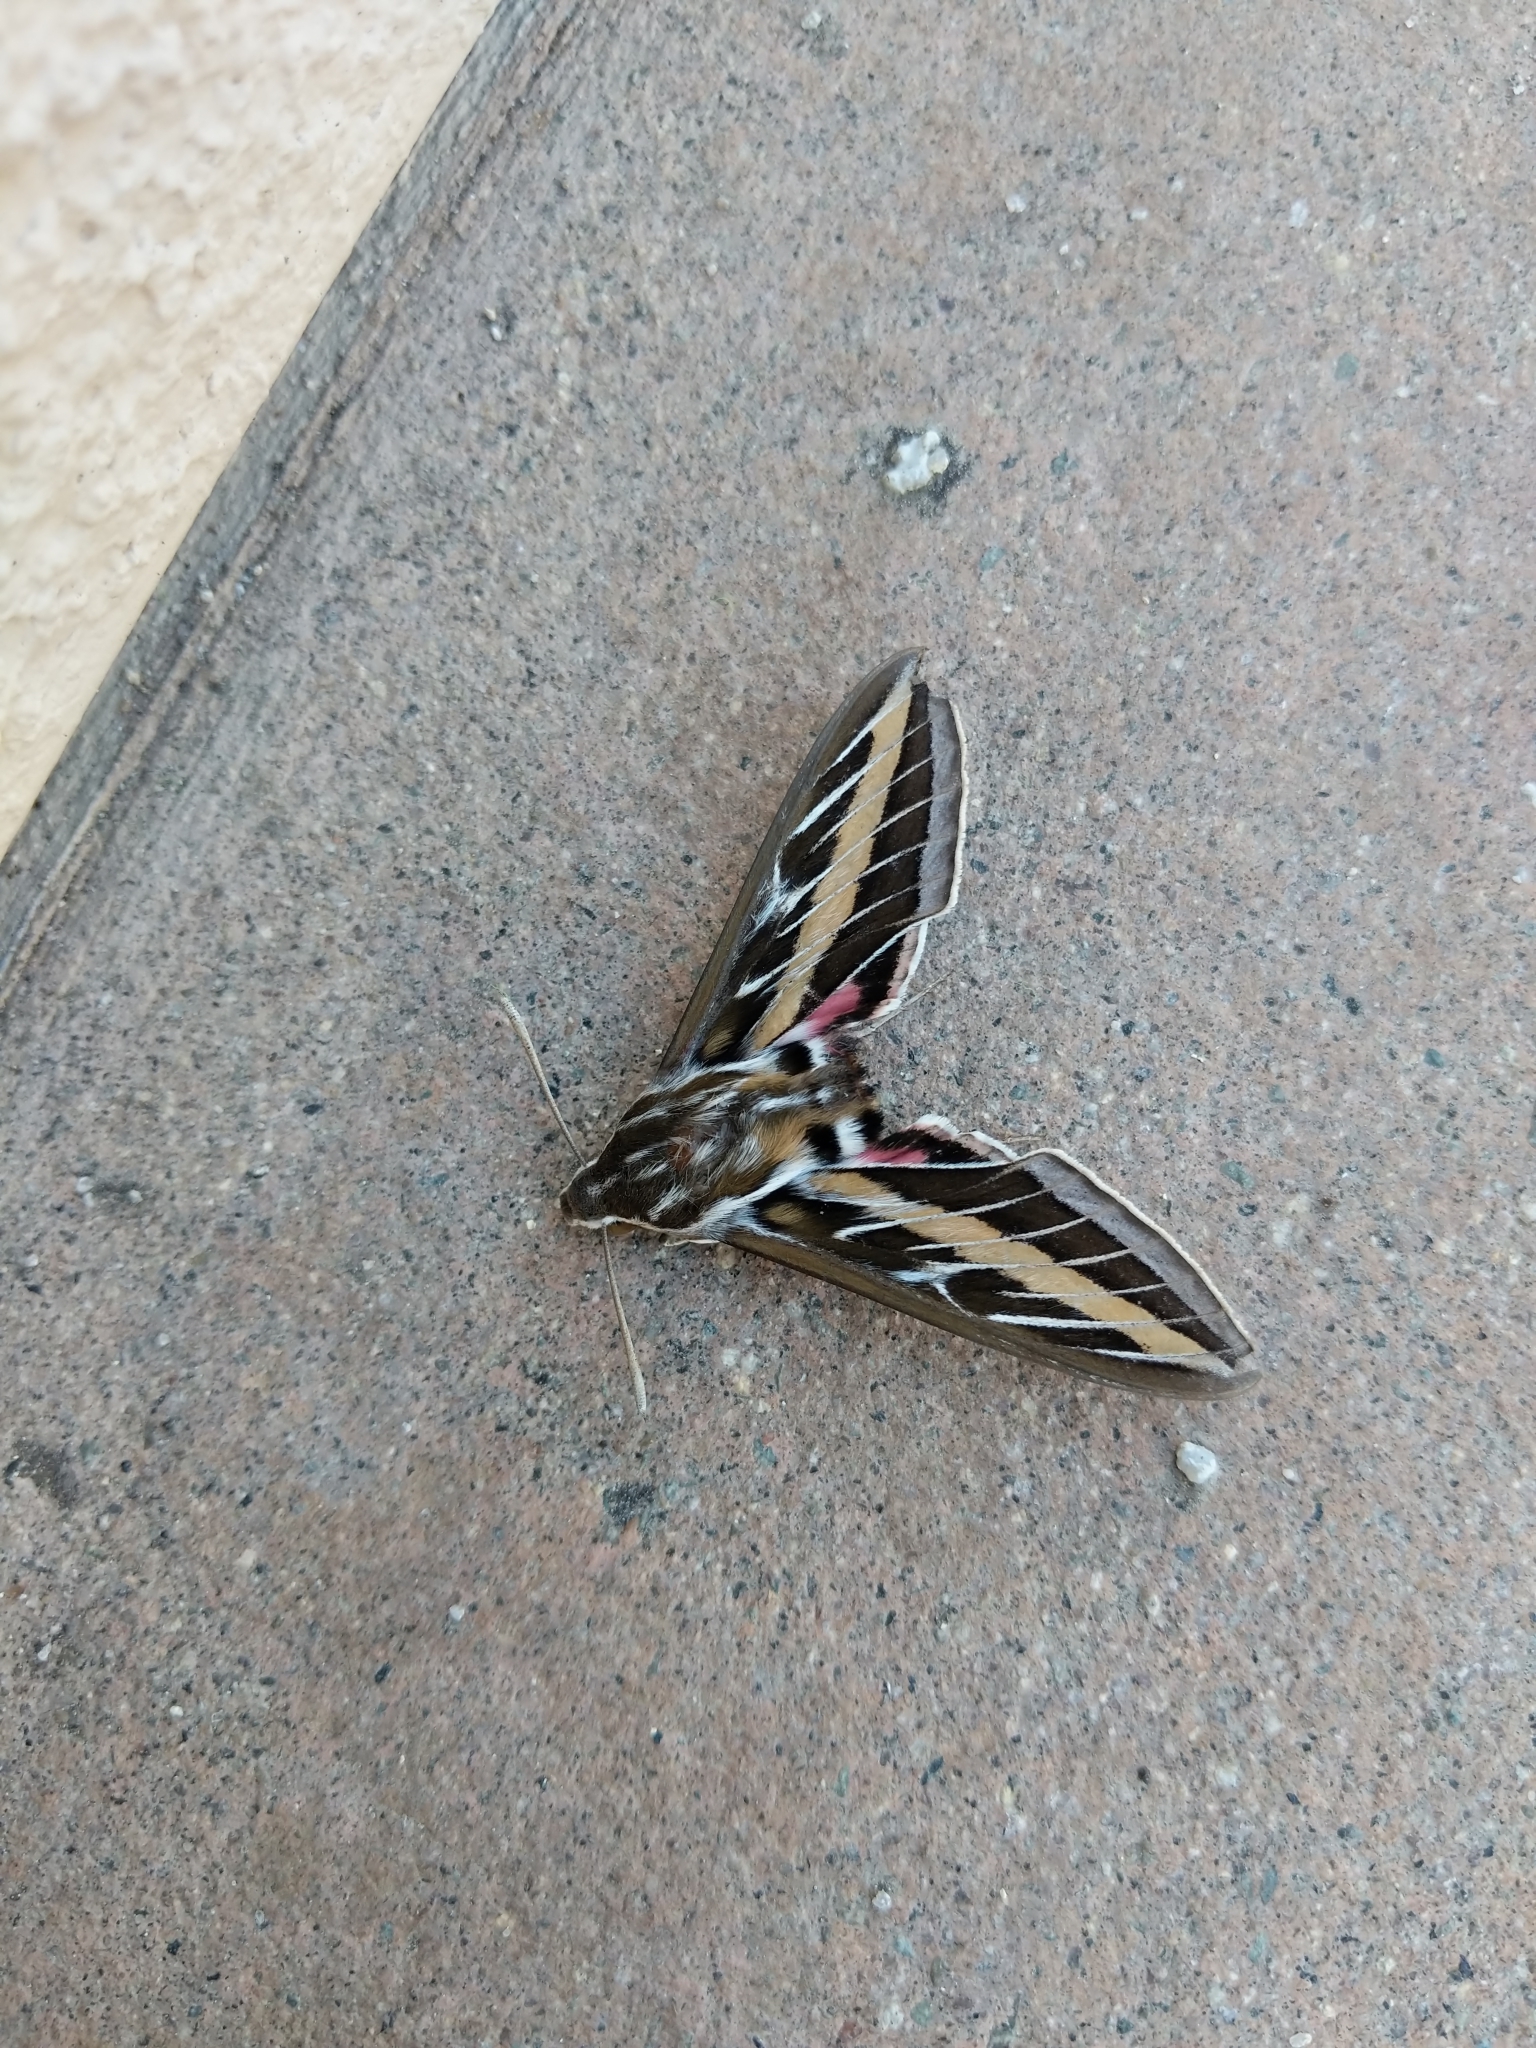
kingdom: Animalia
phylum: Arthropoda
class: Insecta
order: Lepidoptera
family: Sphingidae
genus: Hyles
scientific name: Hyles lineata
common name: White-lined sphinx
